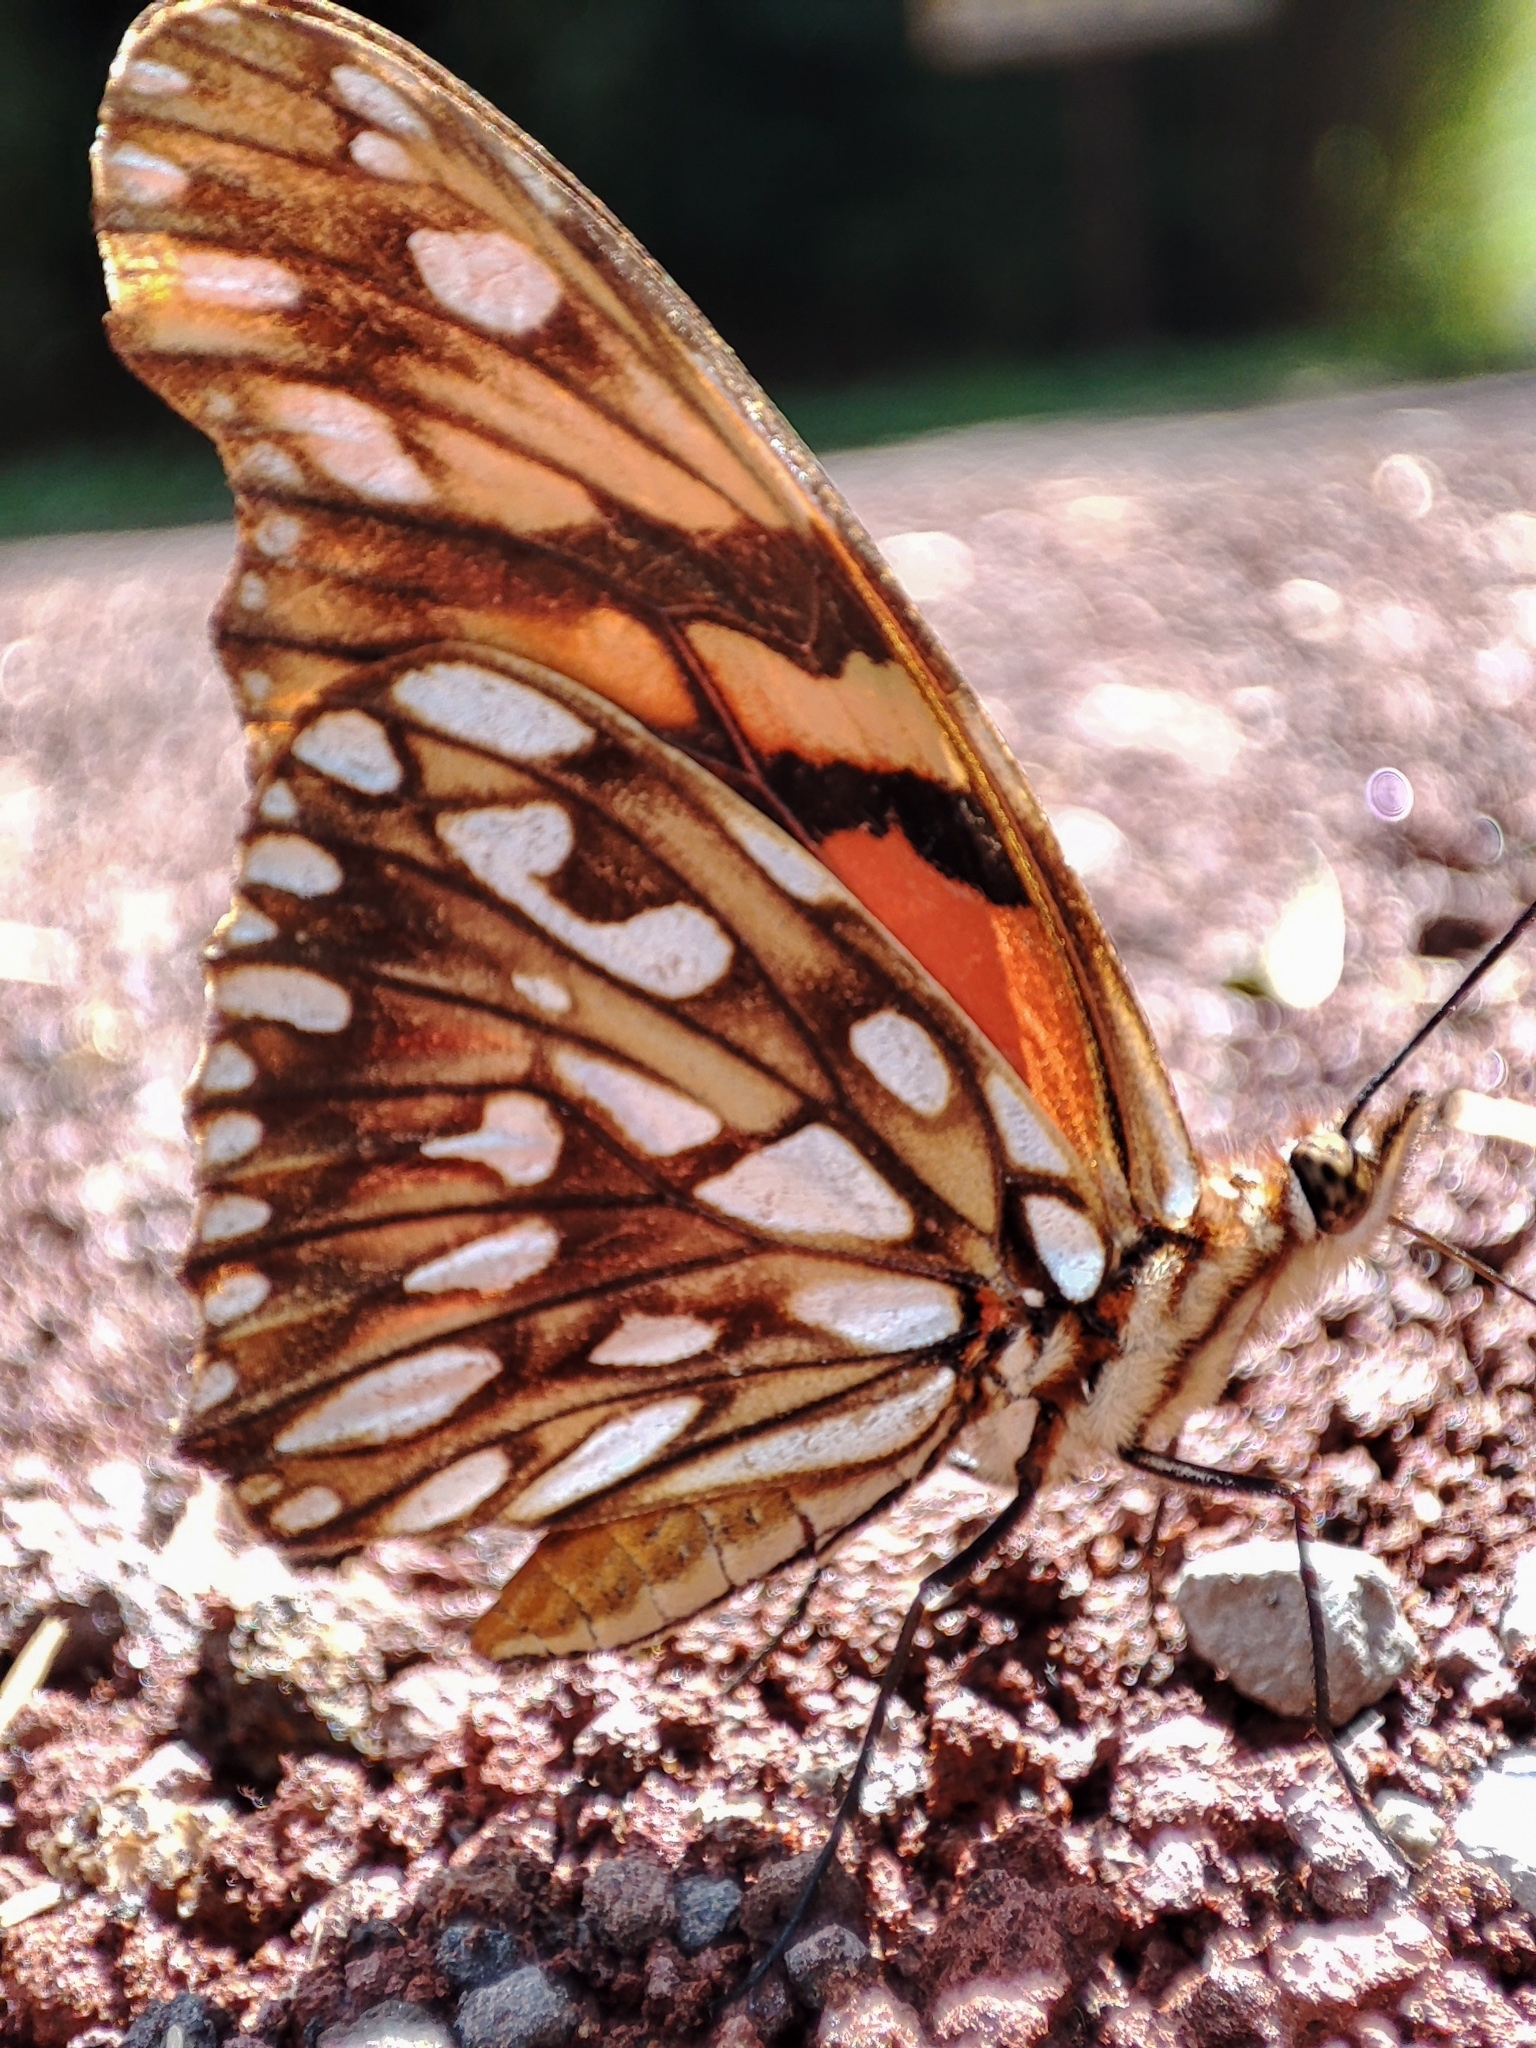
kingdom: Animalia
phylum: Arthropoda
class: Insecta
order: Lepidoptera
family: Nymphalidae
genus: Dione
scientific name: Dione juno
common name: Juno silverspot
